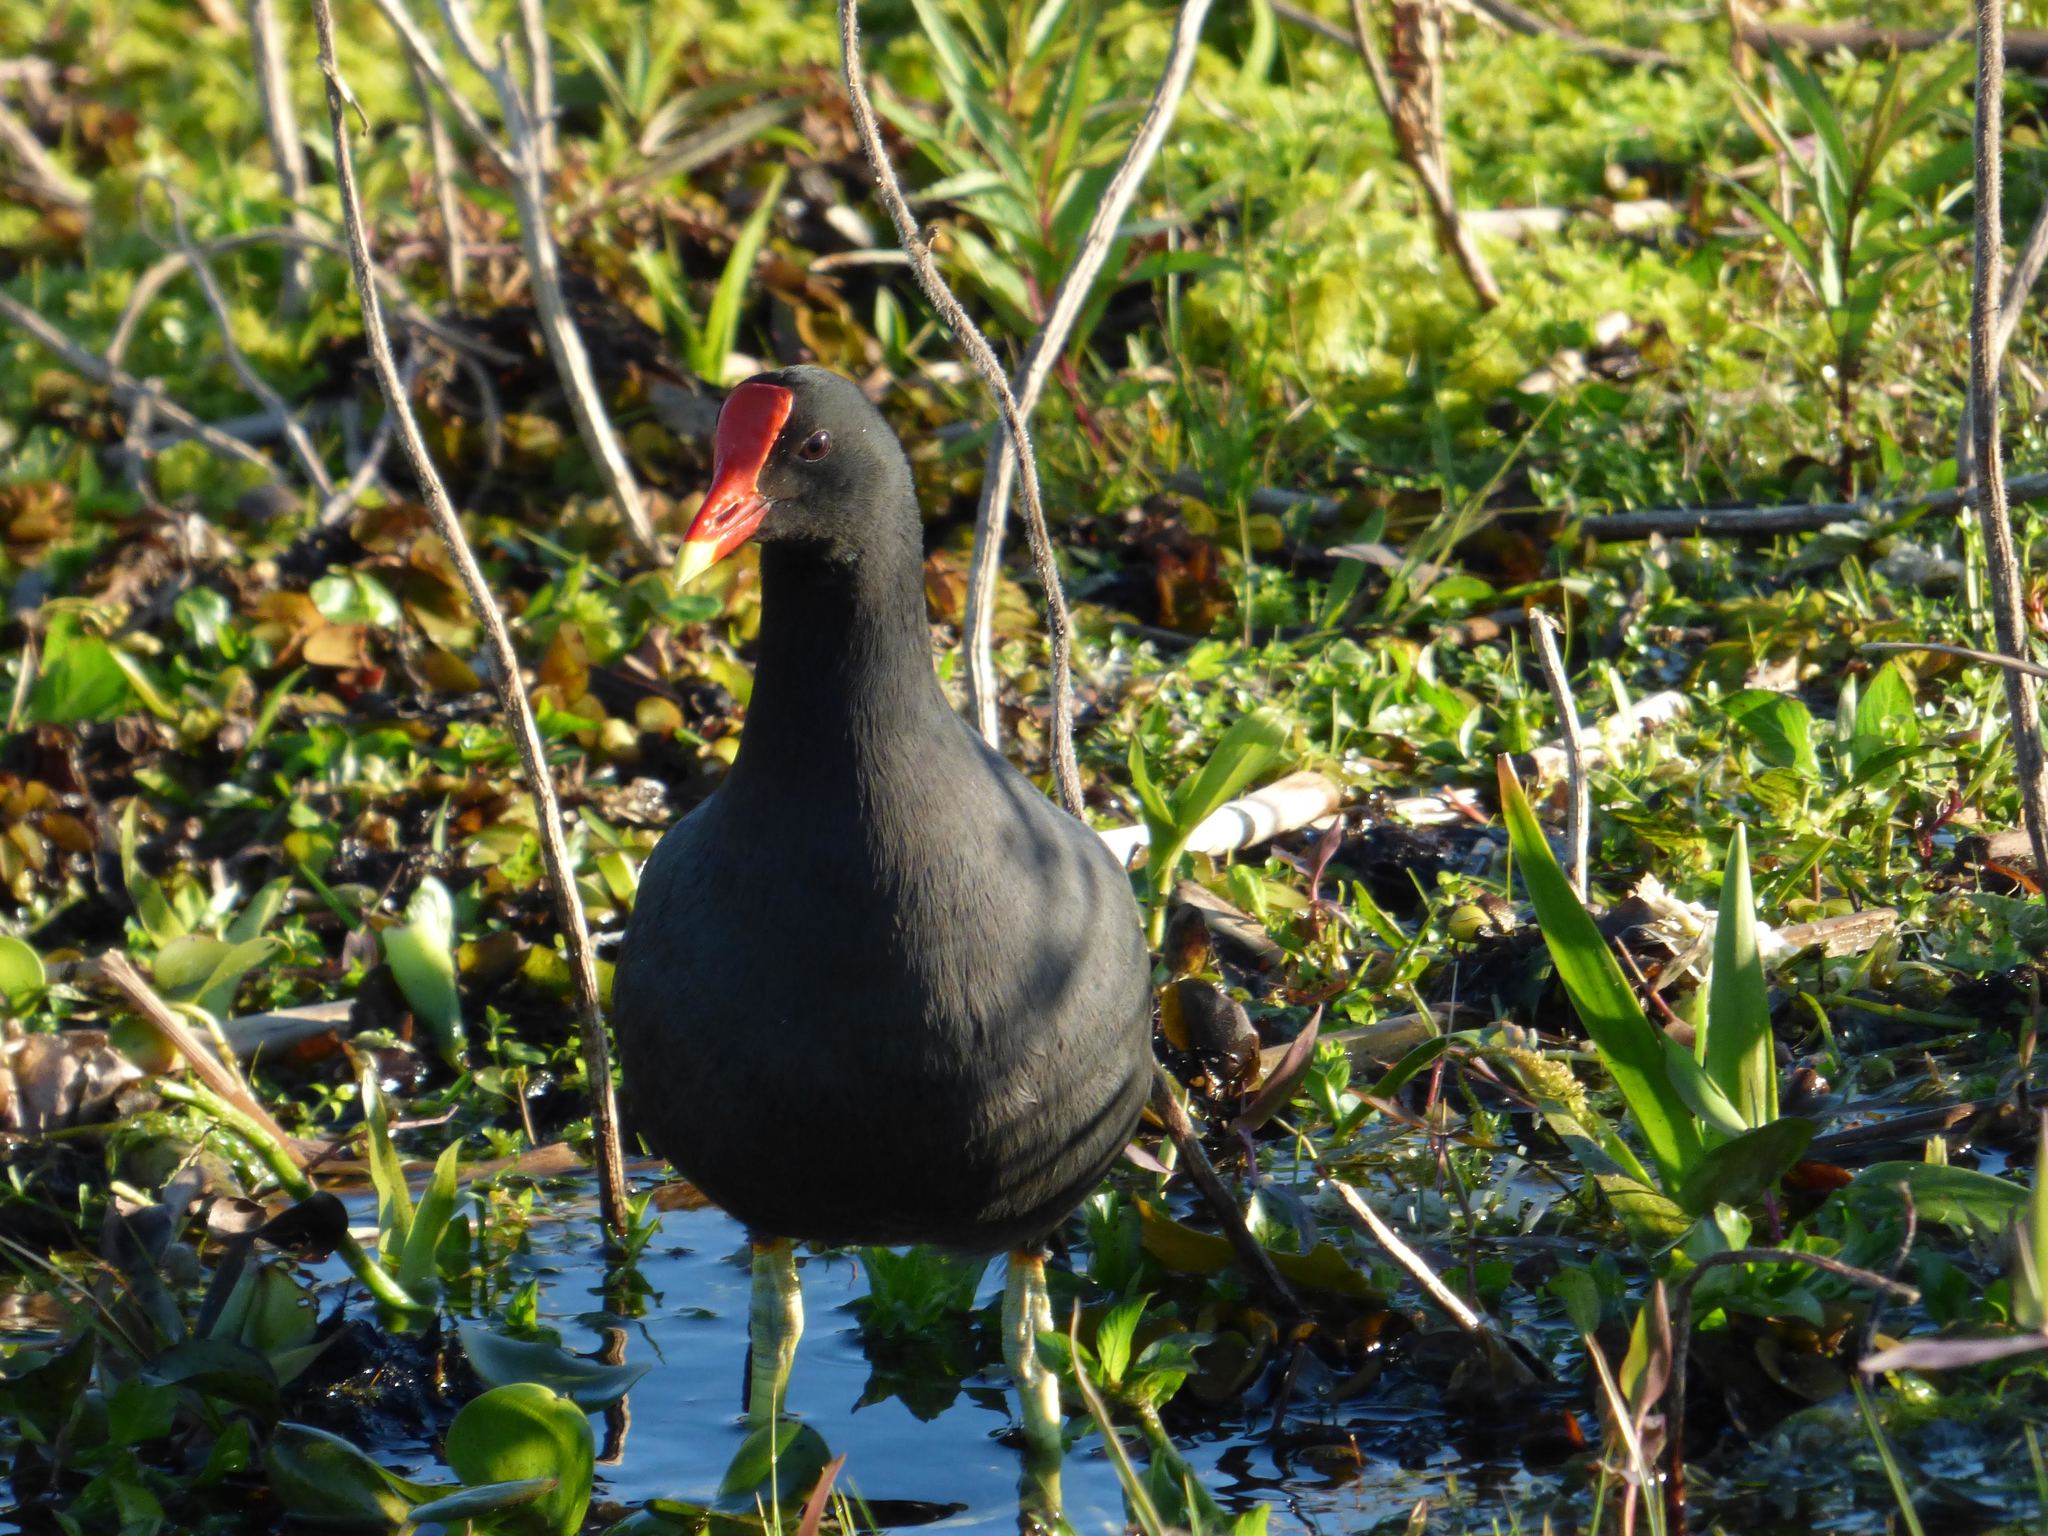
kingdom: Animalia
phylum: Chordata
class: Aves
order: Gruiformes
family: Rallidae
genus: Gallinula
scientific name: Gallinula chloropus
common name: Common moorhen
